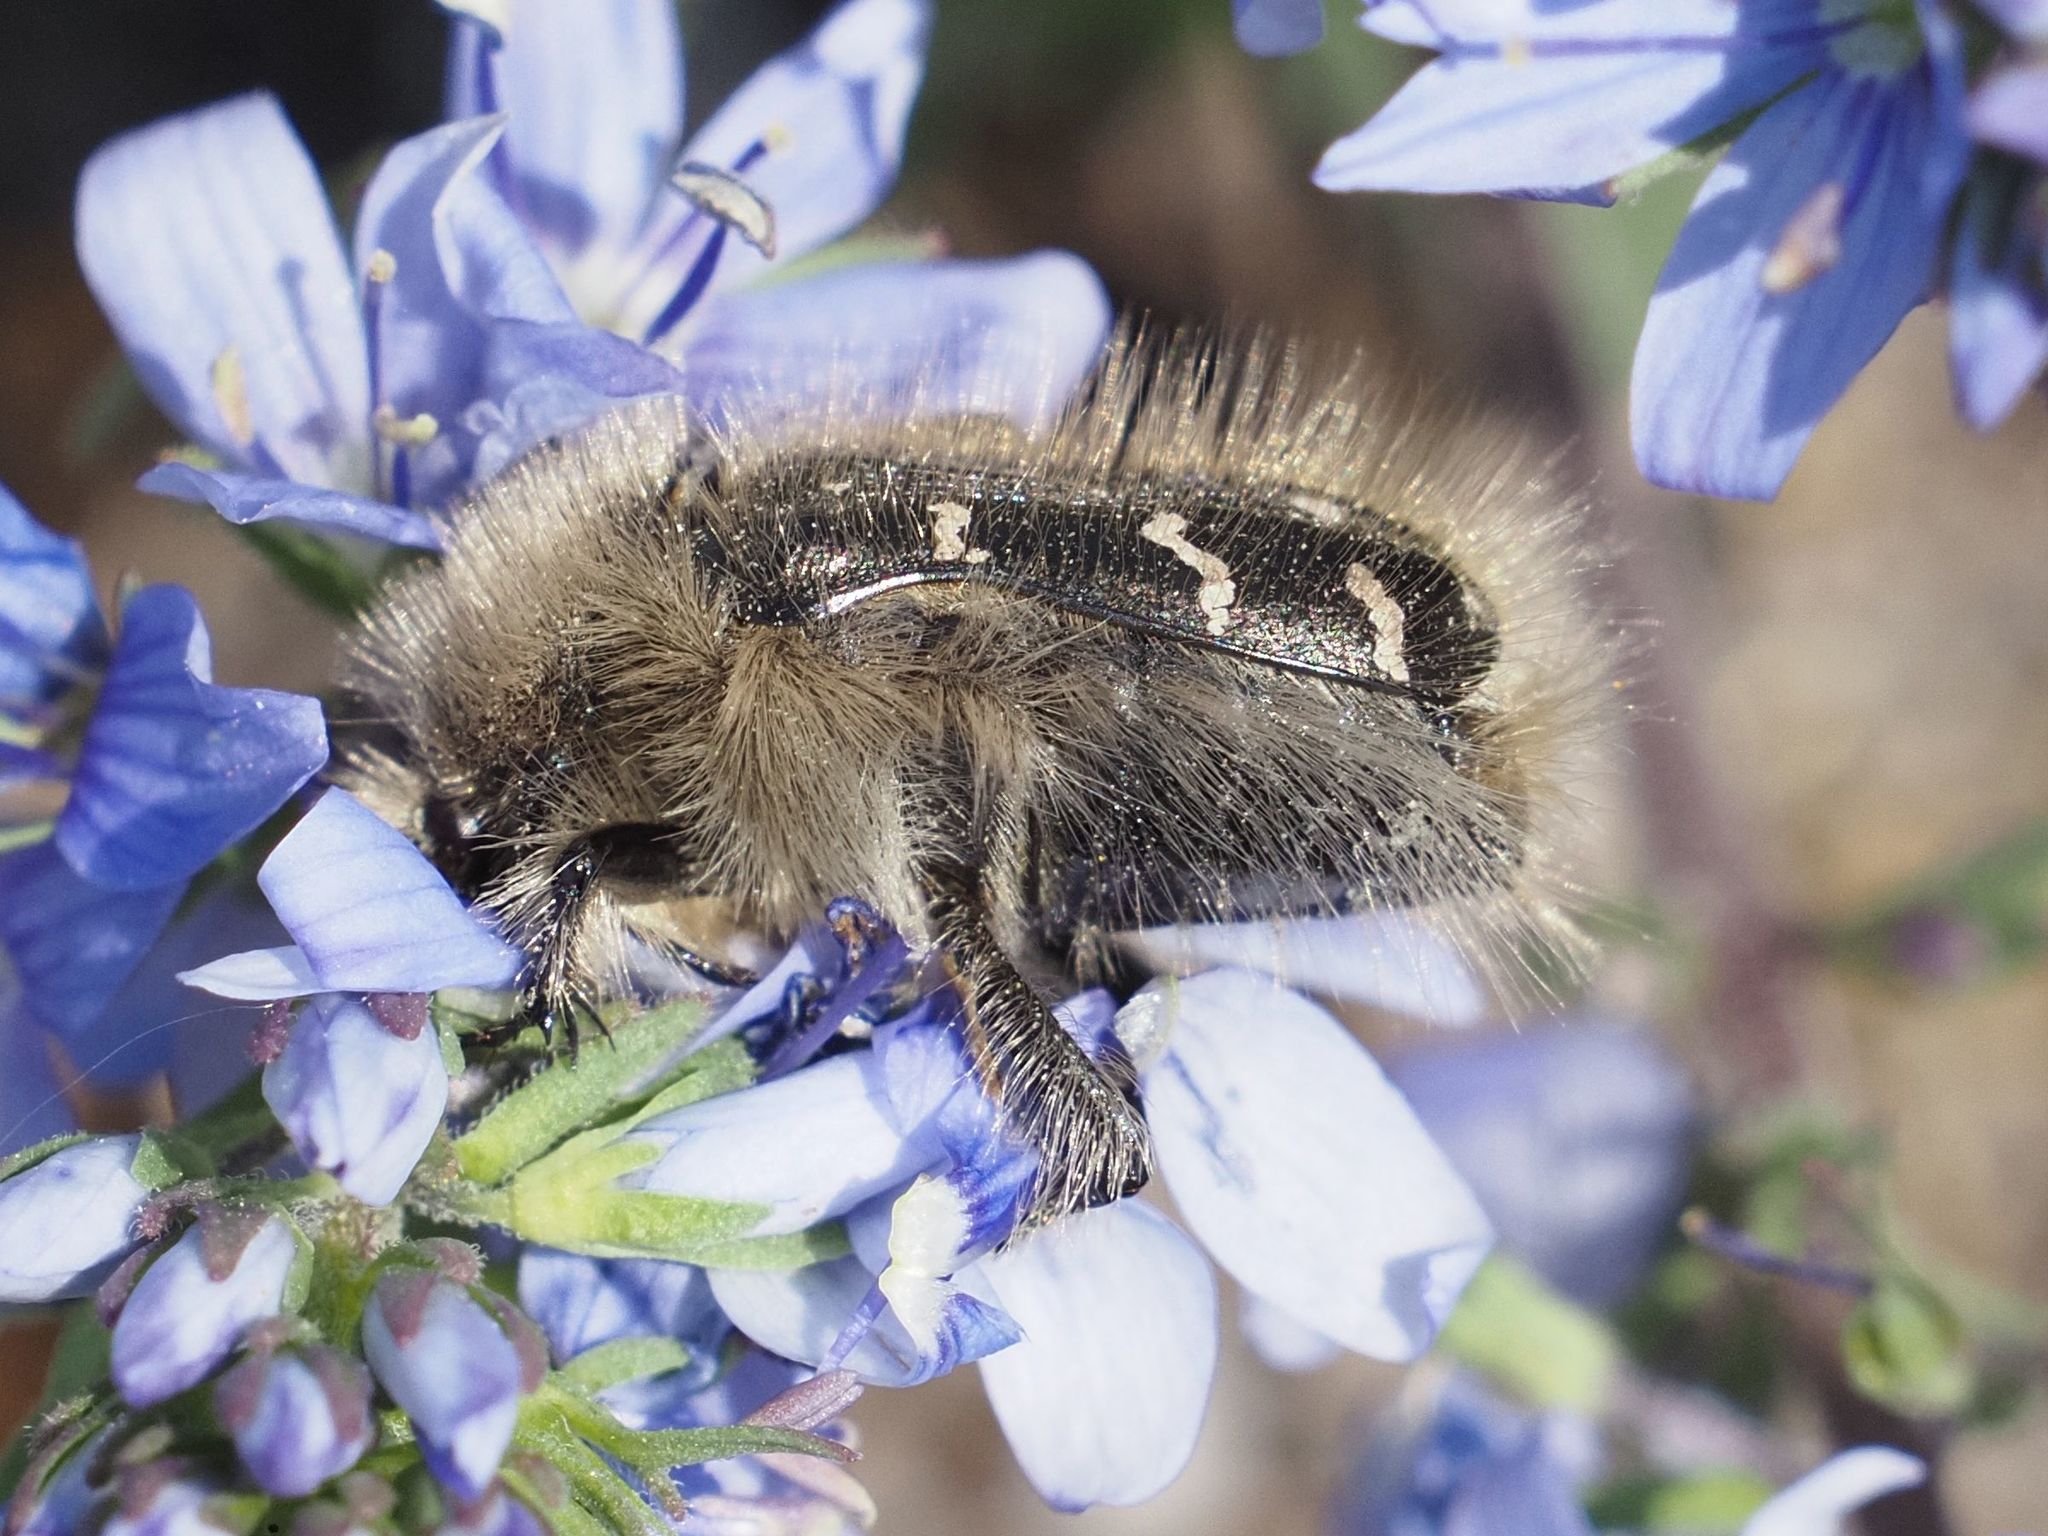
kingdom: Animalia
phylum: Arthropoda
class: Insecta
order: Coleoptera
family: Scarabaeidae
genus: Tropinota
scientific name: Tropinota hirta
